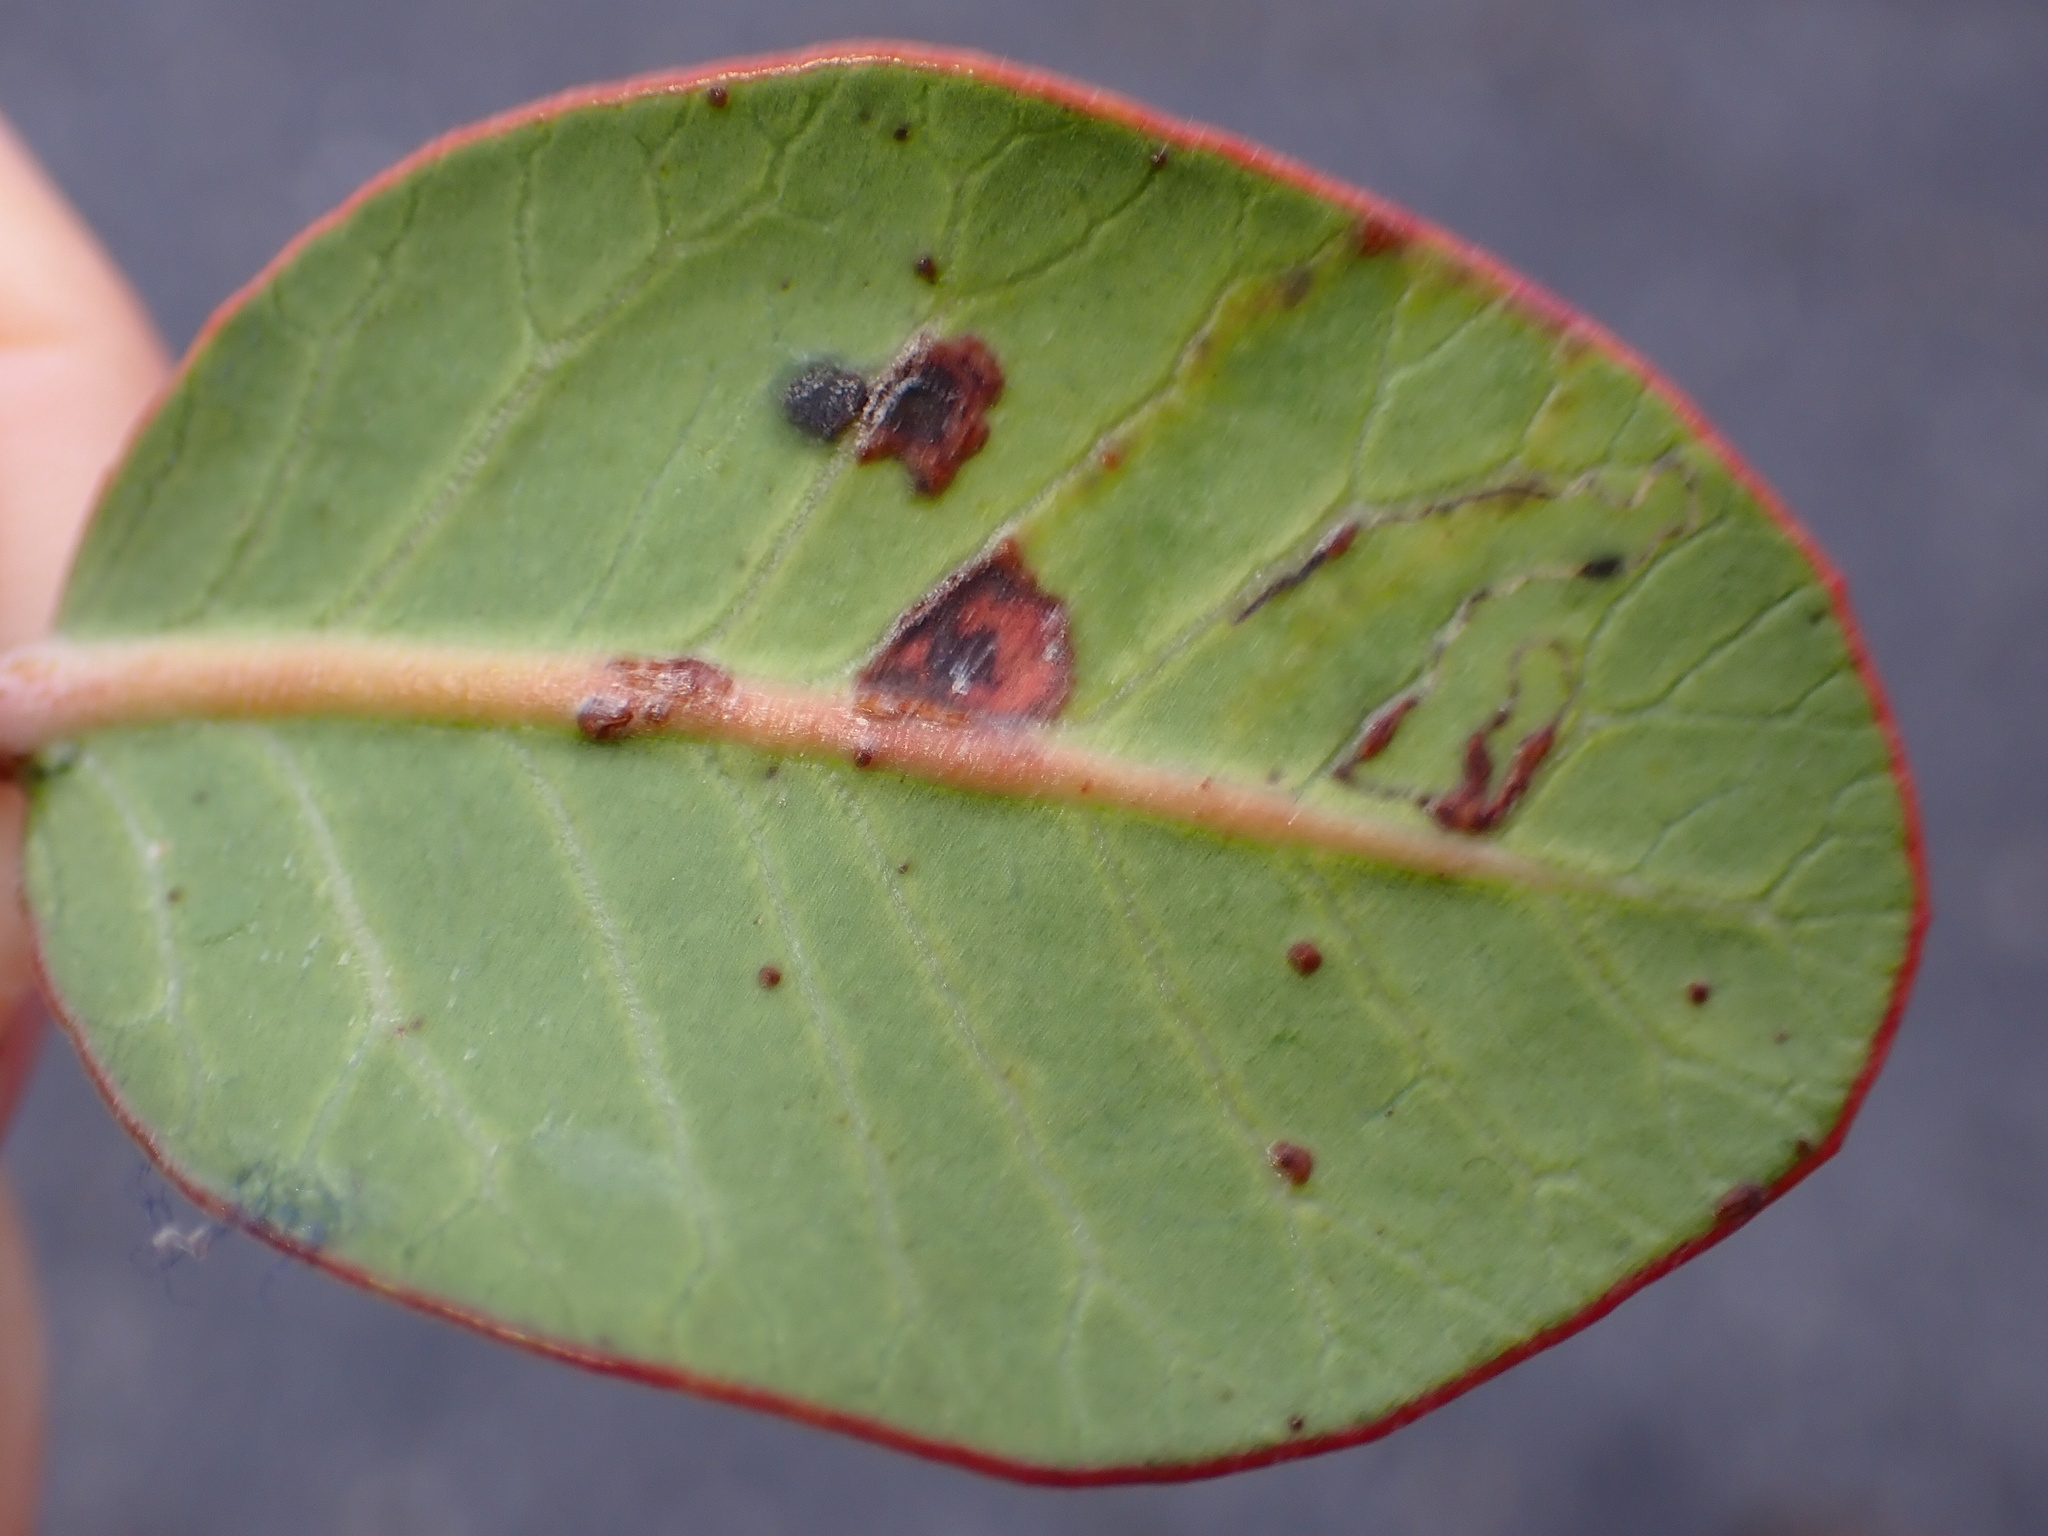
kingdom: Animalia
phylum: Arthropoda
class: Insecta
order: Lepidoptera
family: Gracillariidae
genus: Caloptilia
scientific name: Caloptilia ovatiella
